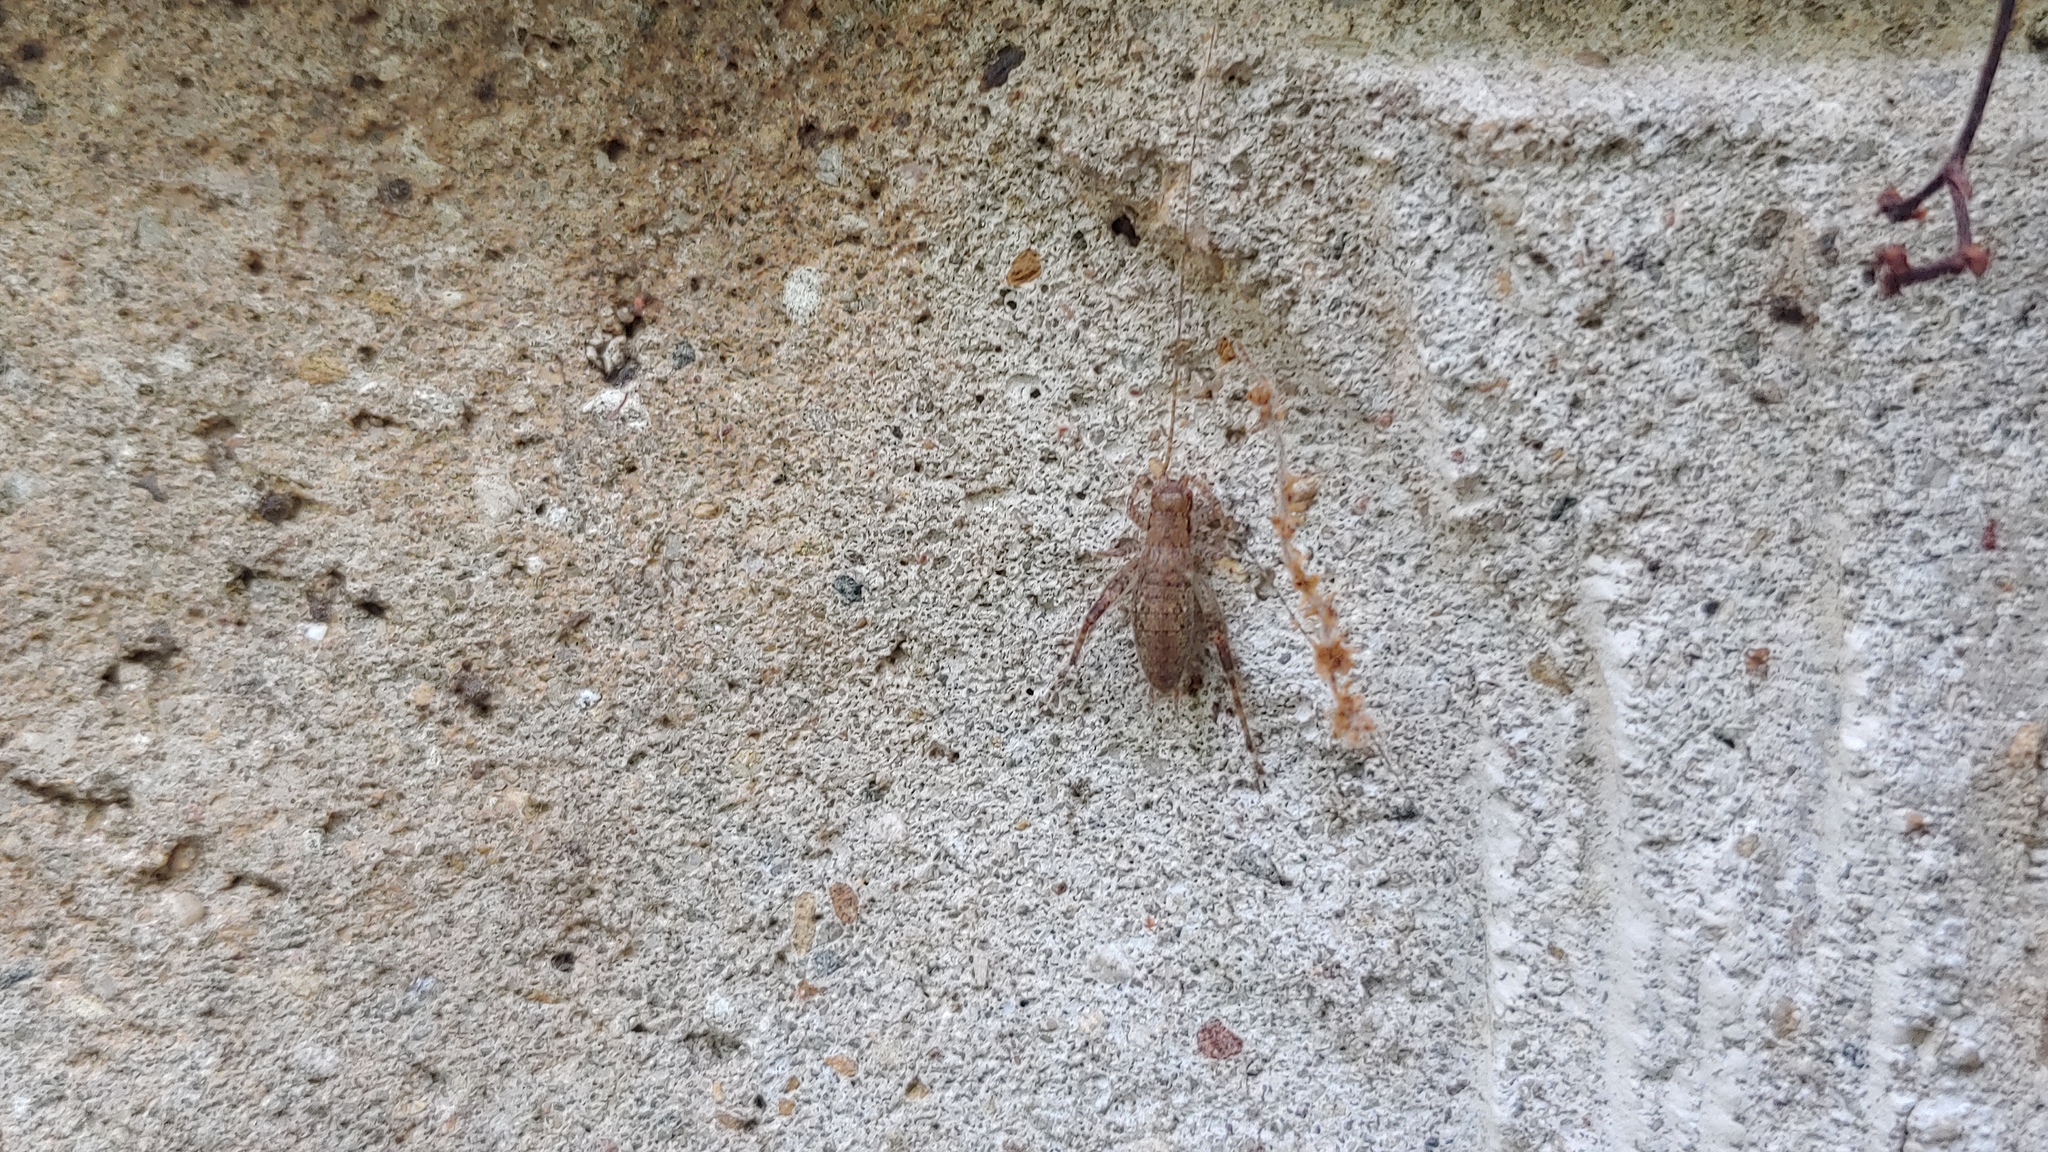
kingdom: Animalia
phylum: Arthropoda
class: Insecta
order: Orthoptera
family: Gryllidae
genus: Hapithus
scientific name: Hapithus saltator
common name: Jumping bush cricket
